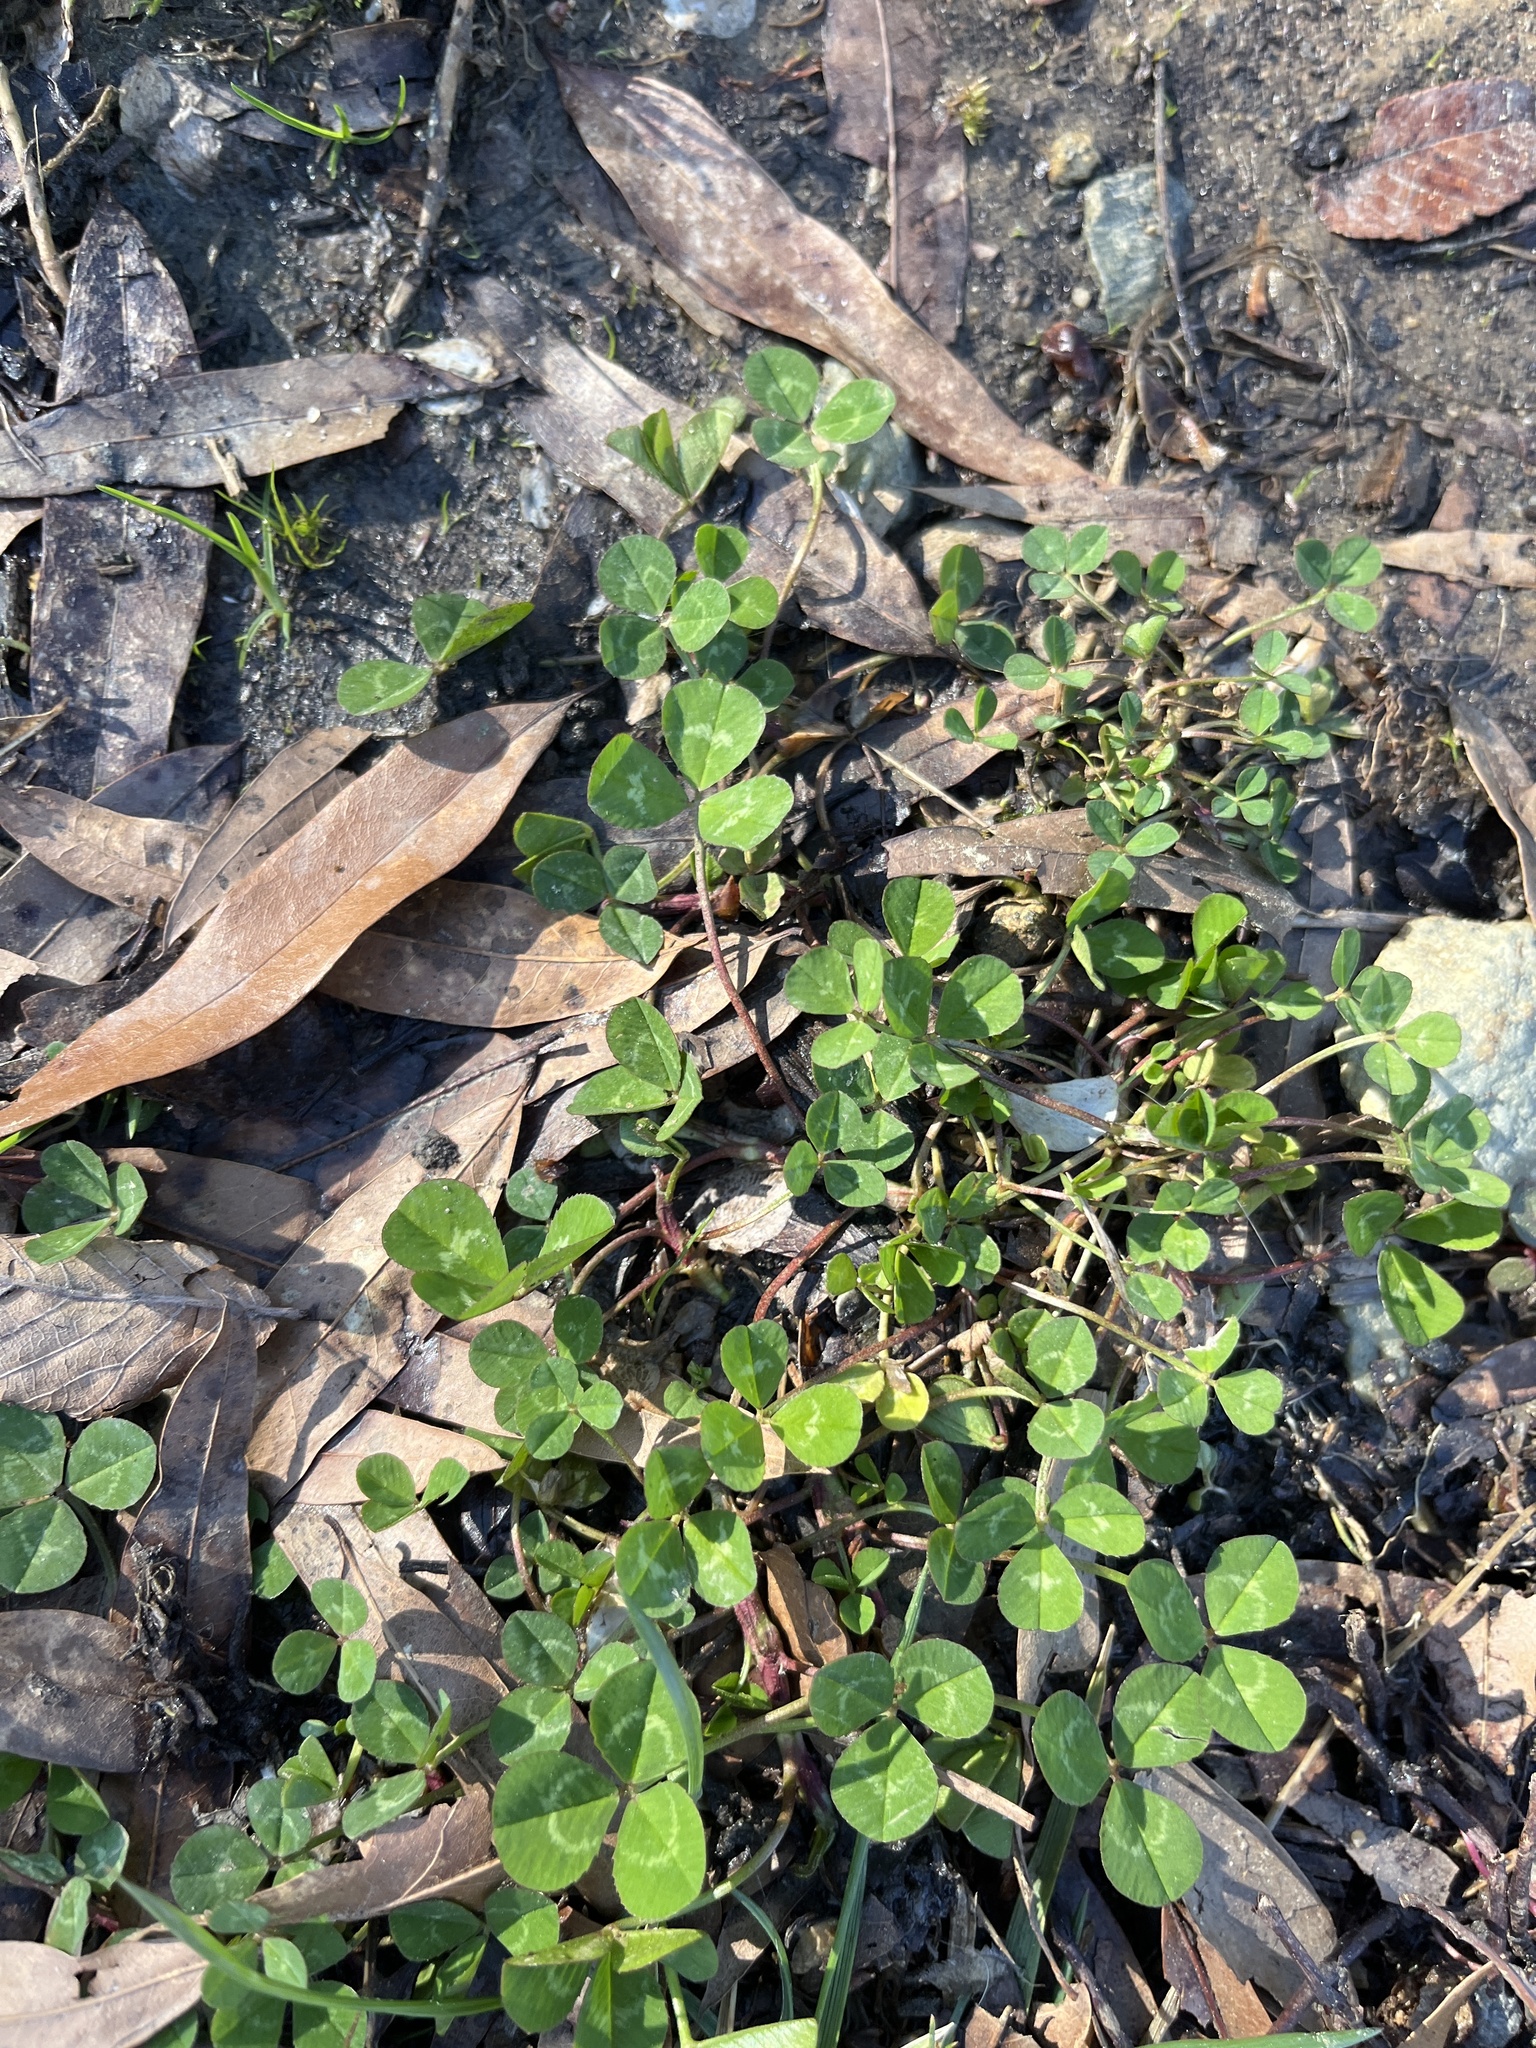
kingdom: Plantae
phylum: Tracheophyta
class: Magnoliopsida
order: Fabales
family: Fabaceae
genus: Trifolium
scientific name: Trifolium repens
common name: White clover
